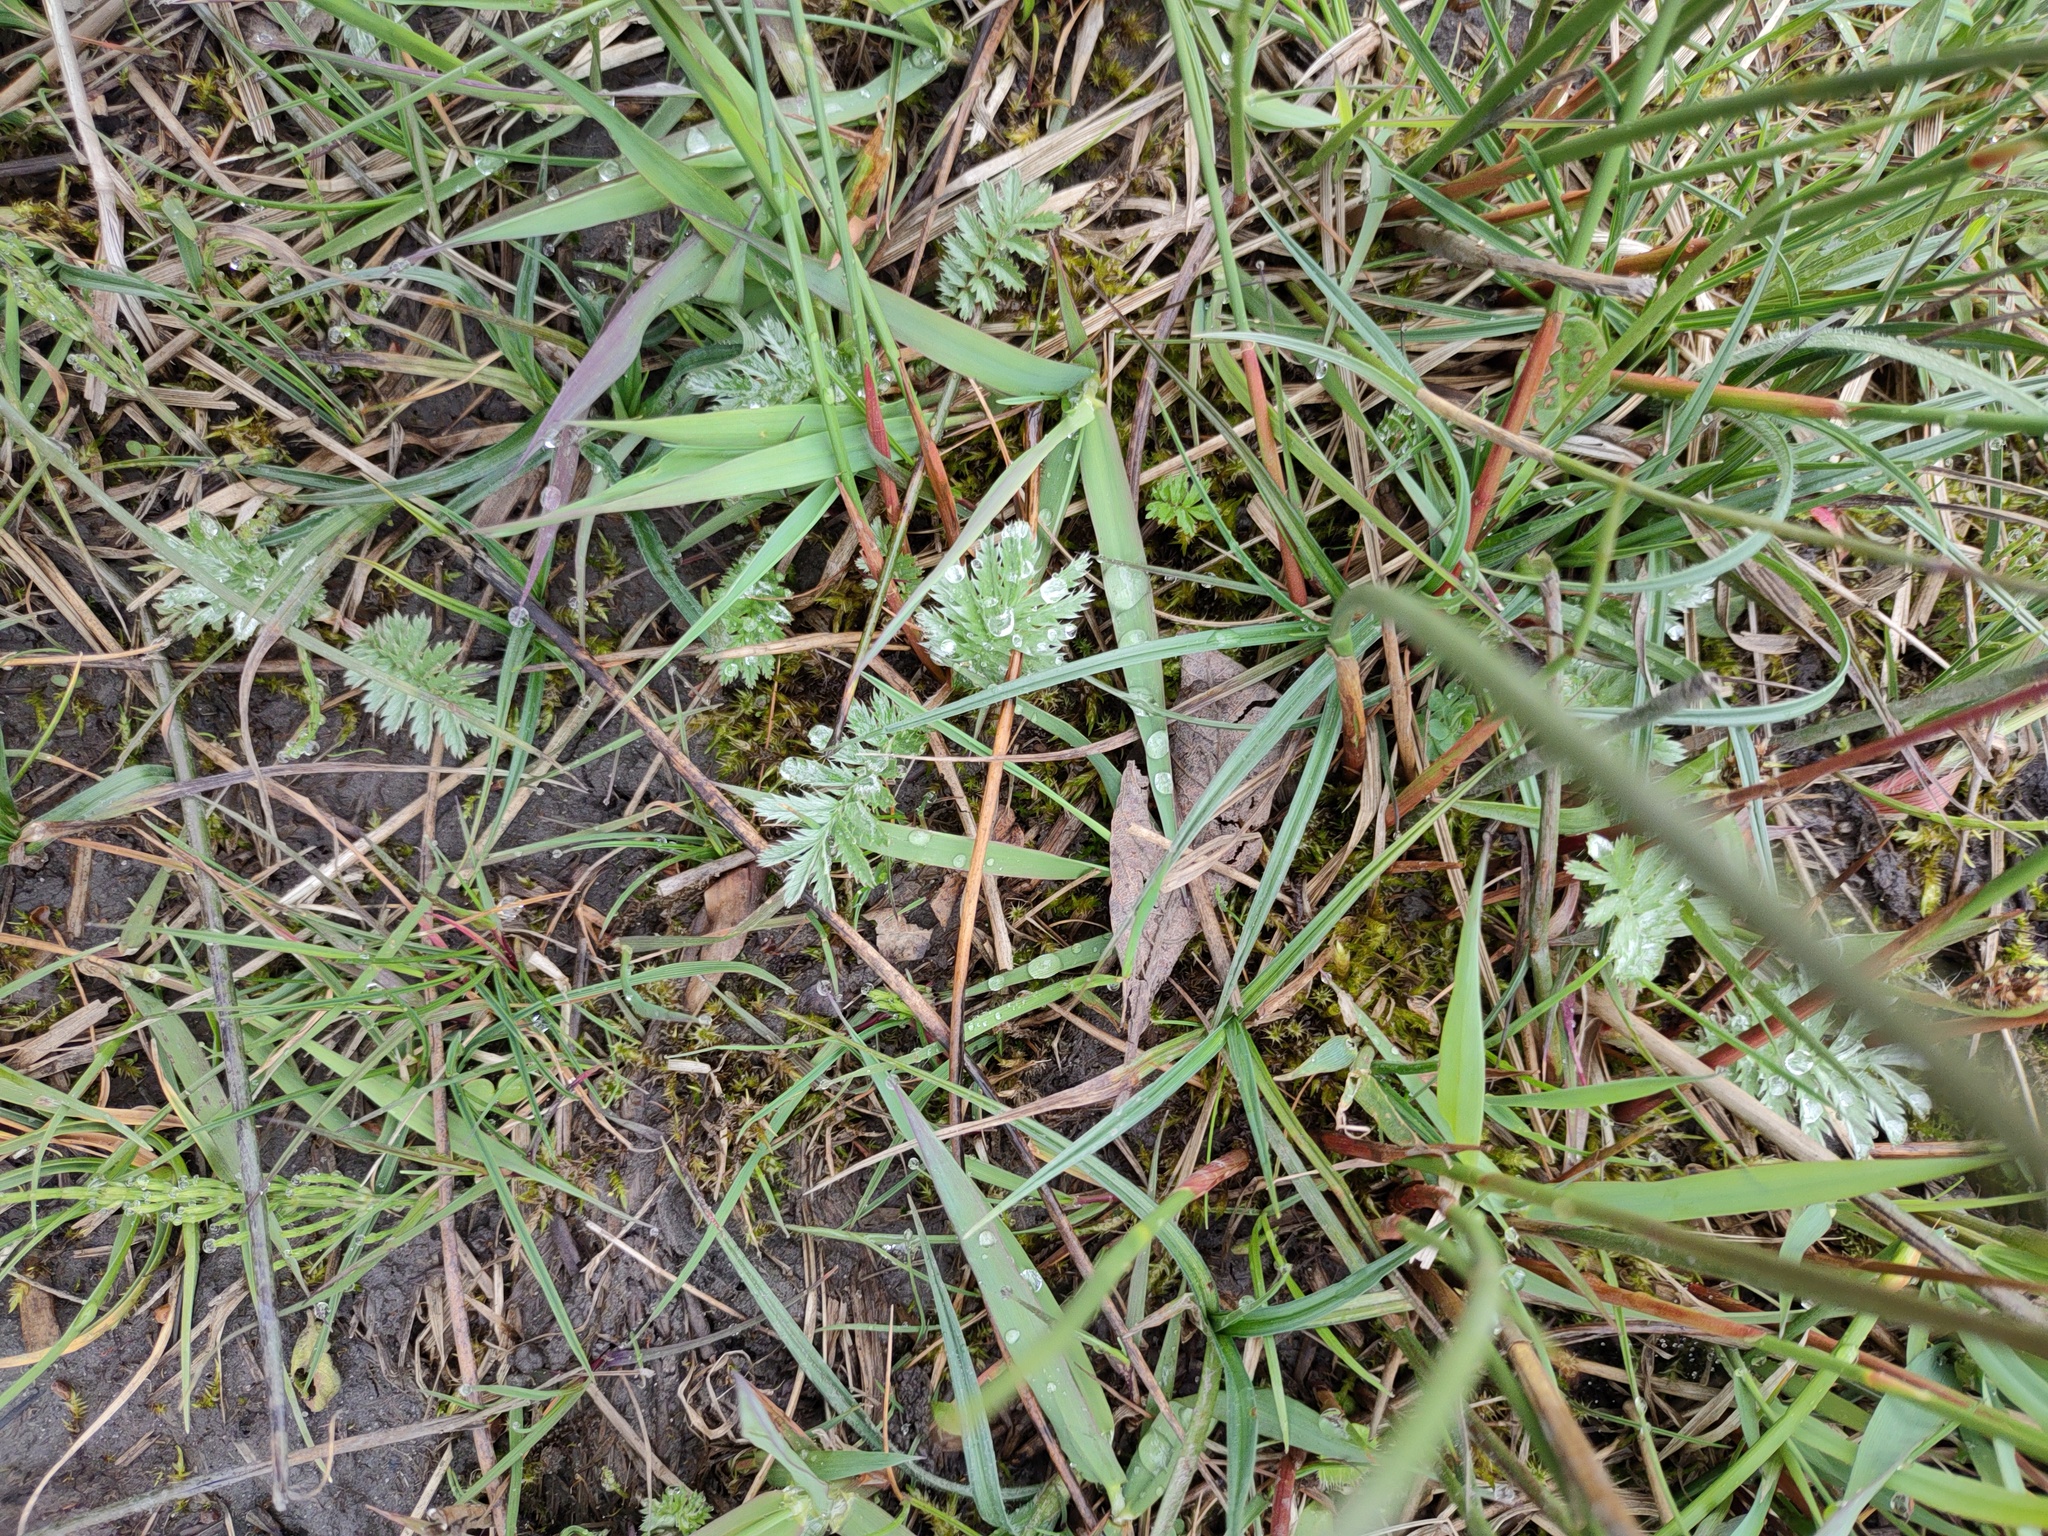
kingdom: Plantae
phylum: Tracheophyta
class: Magnoliopsida
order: Rosales
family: Rosaceae
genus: Argentina
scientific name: Argentina anserina
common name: Common silverweed
